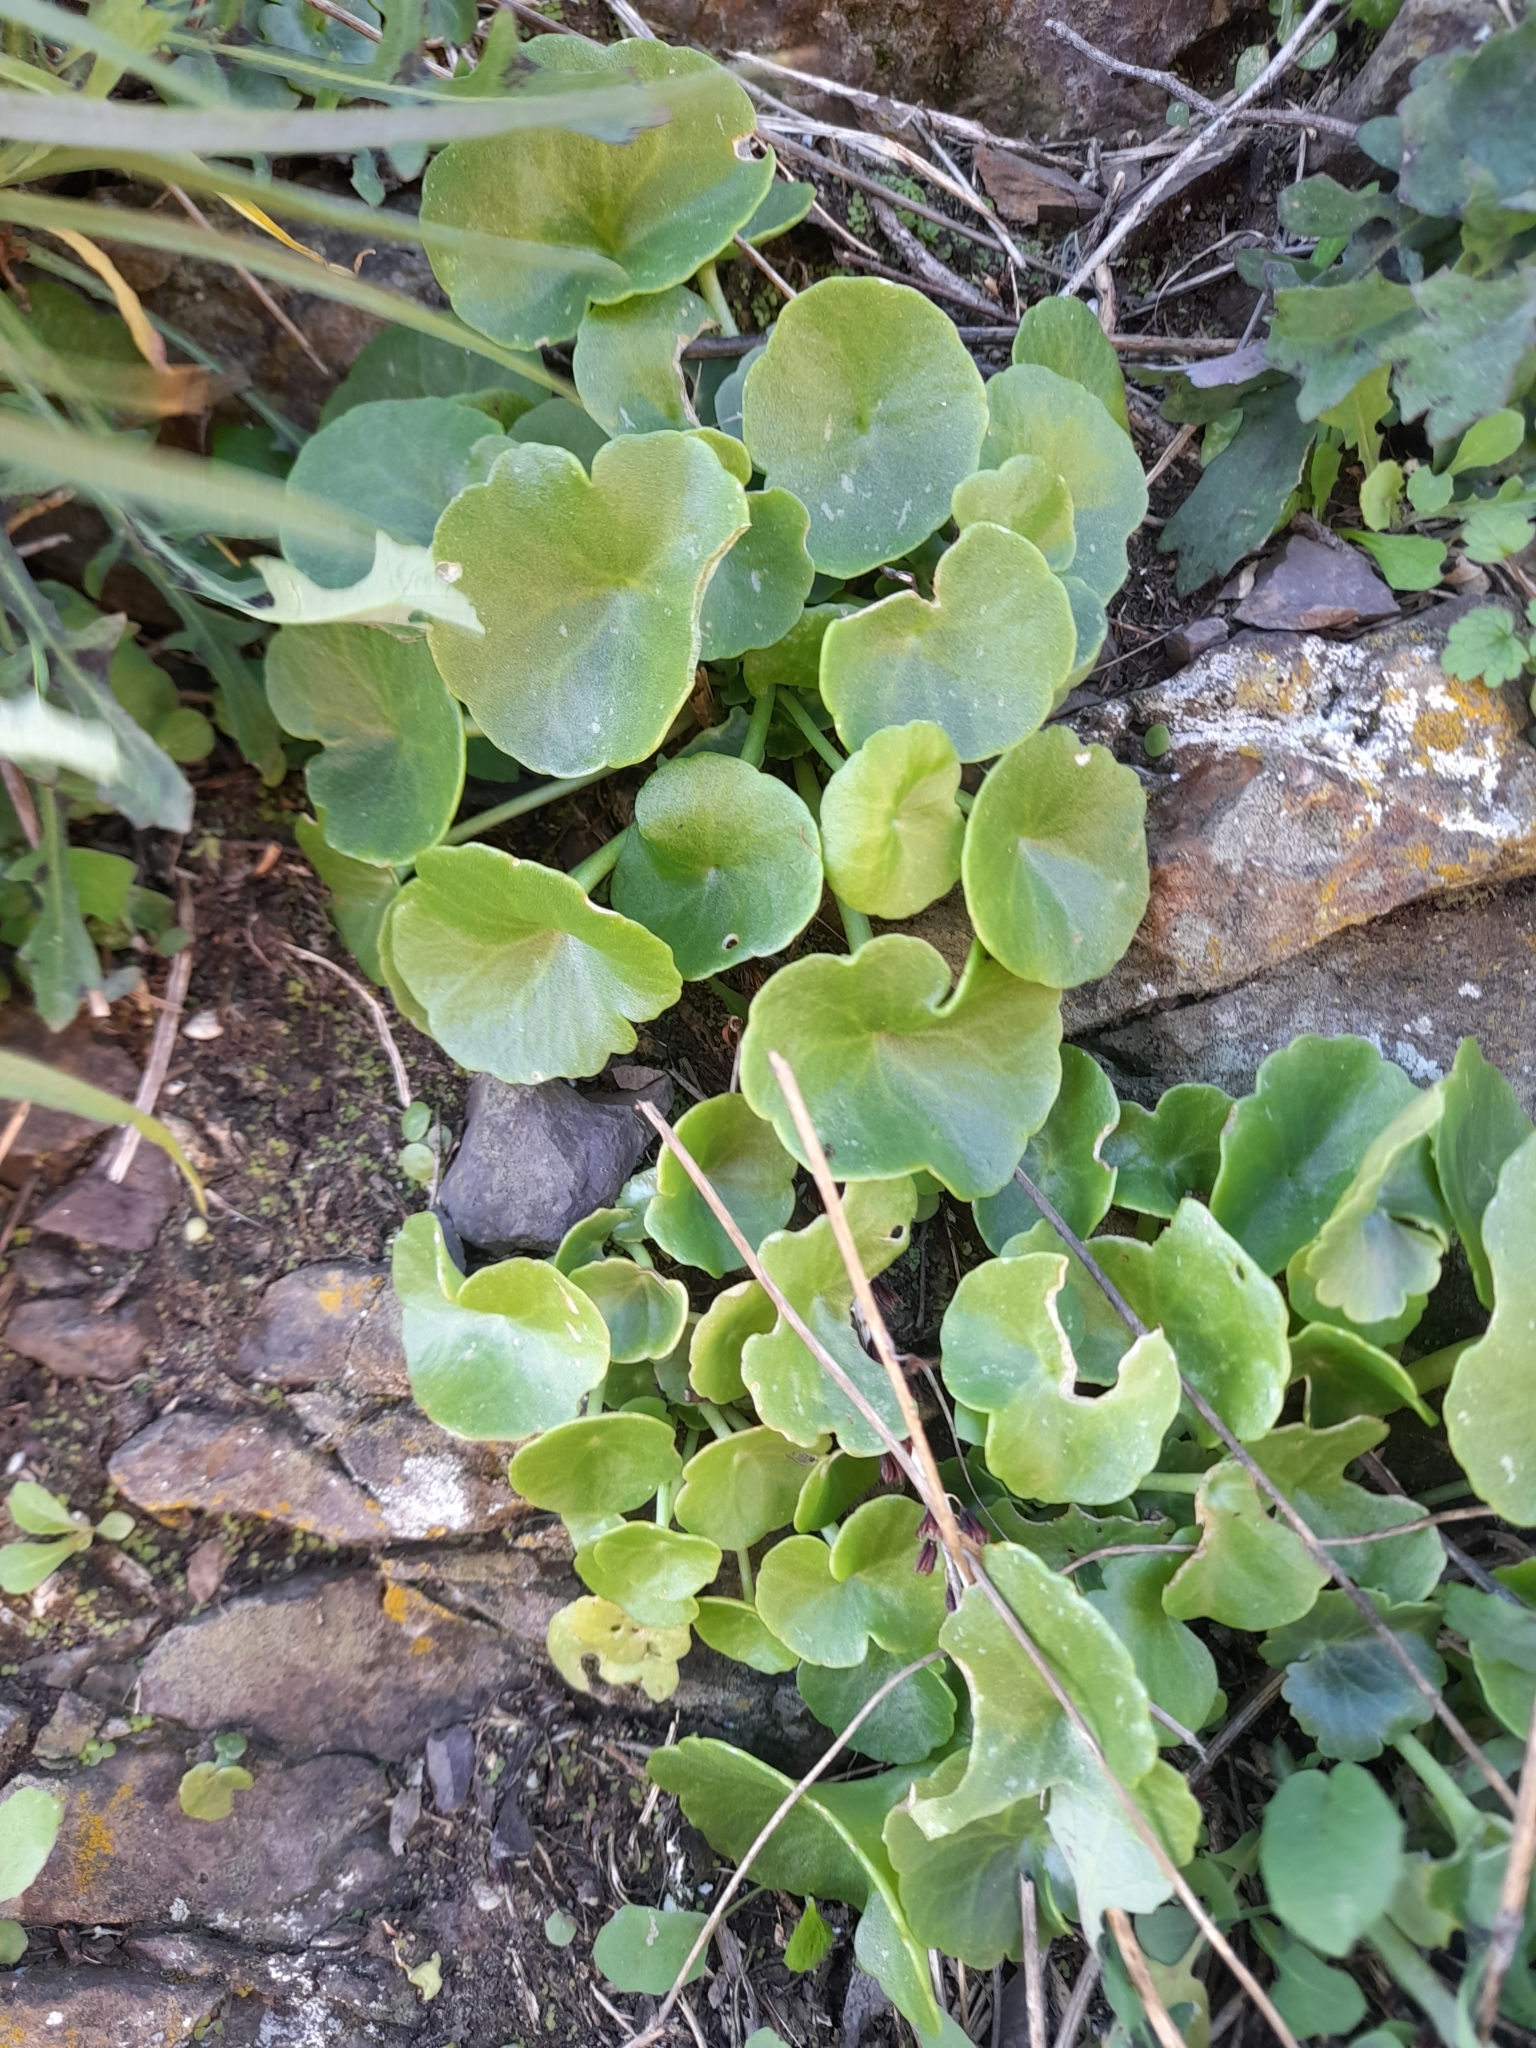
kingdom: Plantae
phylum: Tracheophyta
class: Magnoliopsida
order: Saxifragales
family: Crassulaceae
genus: Umbilicus
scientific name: Umbilicus rupestris
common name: Navelwort
